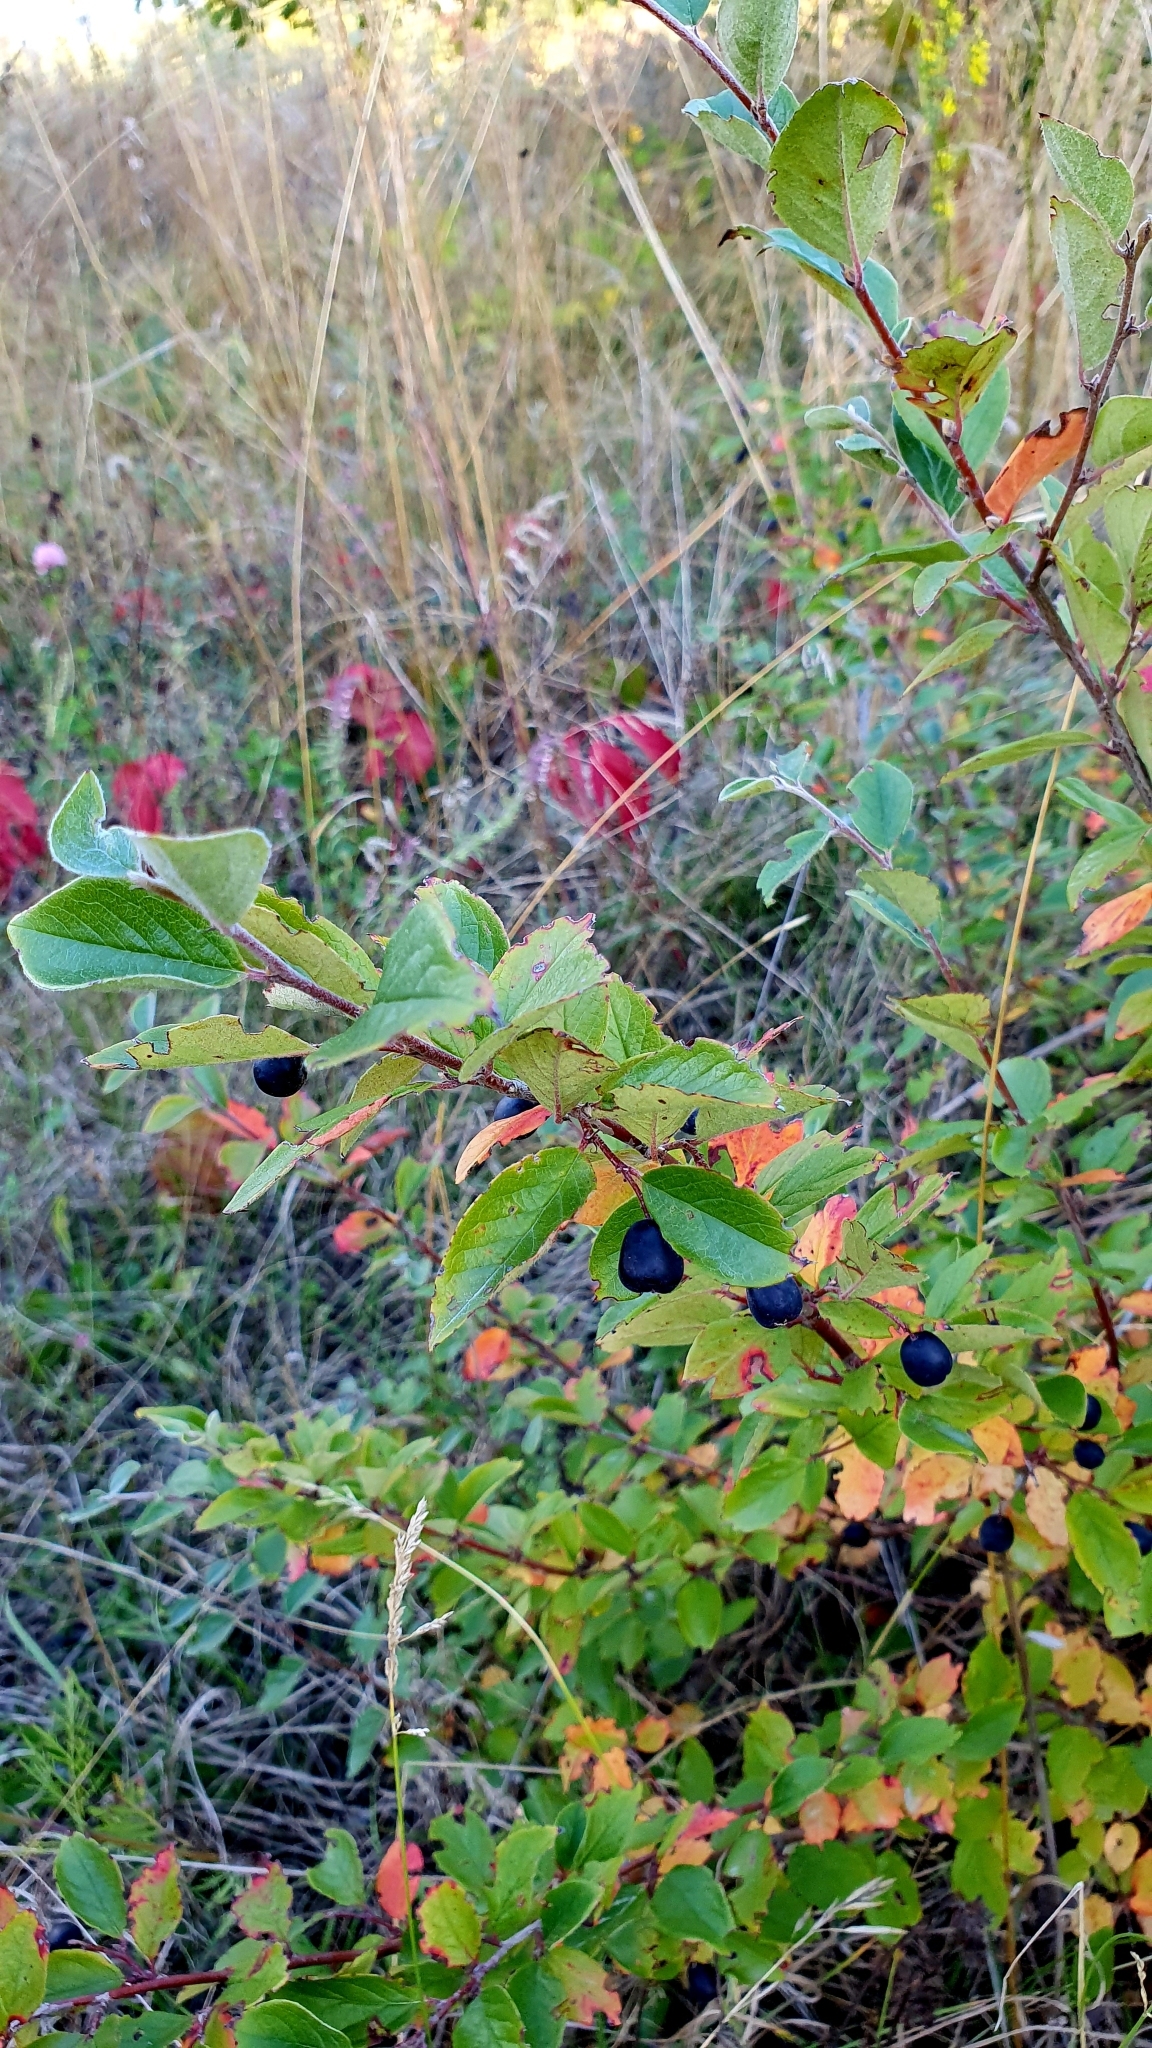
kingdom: Plantae
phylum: Tracheophyta
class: Magnoliopsida
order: Rosales
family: Rosaceae
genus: Cotoneaster
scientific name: Cotoneaster acutifolius
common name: Peking cotoneaster
